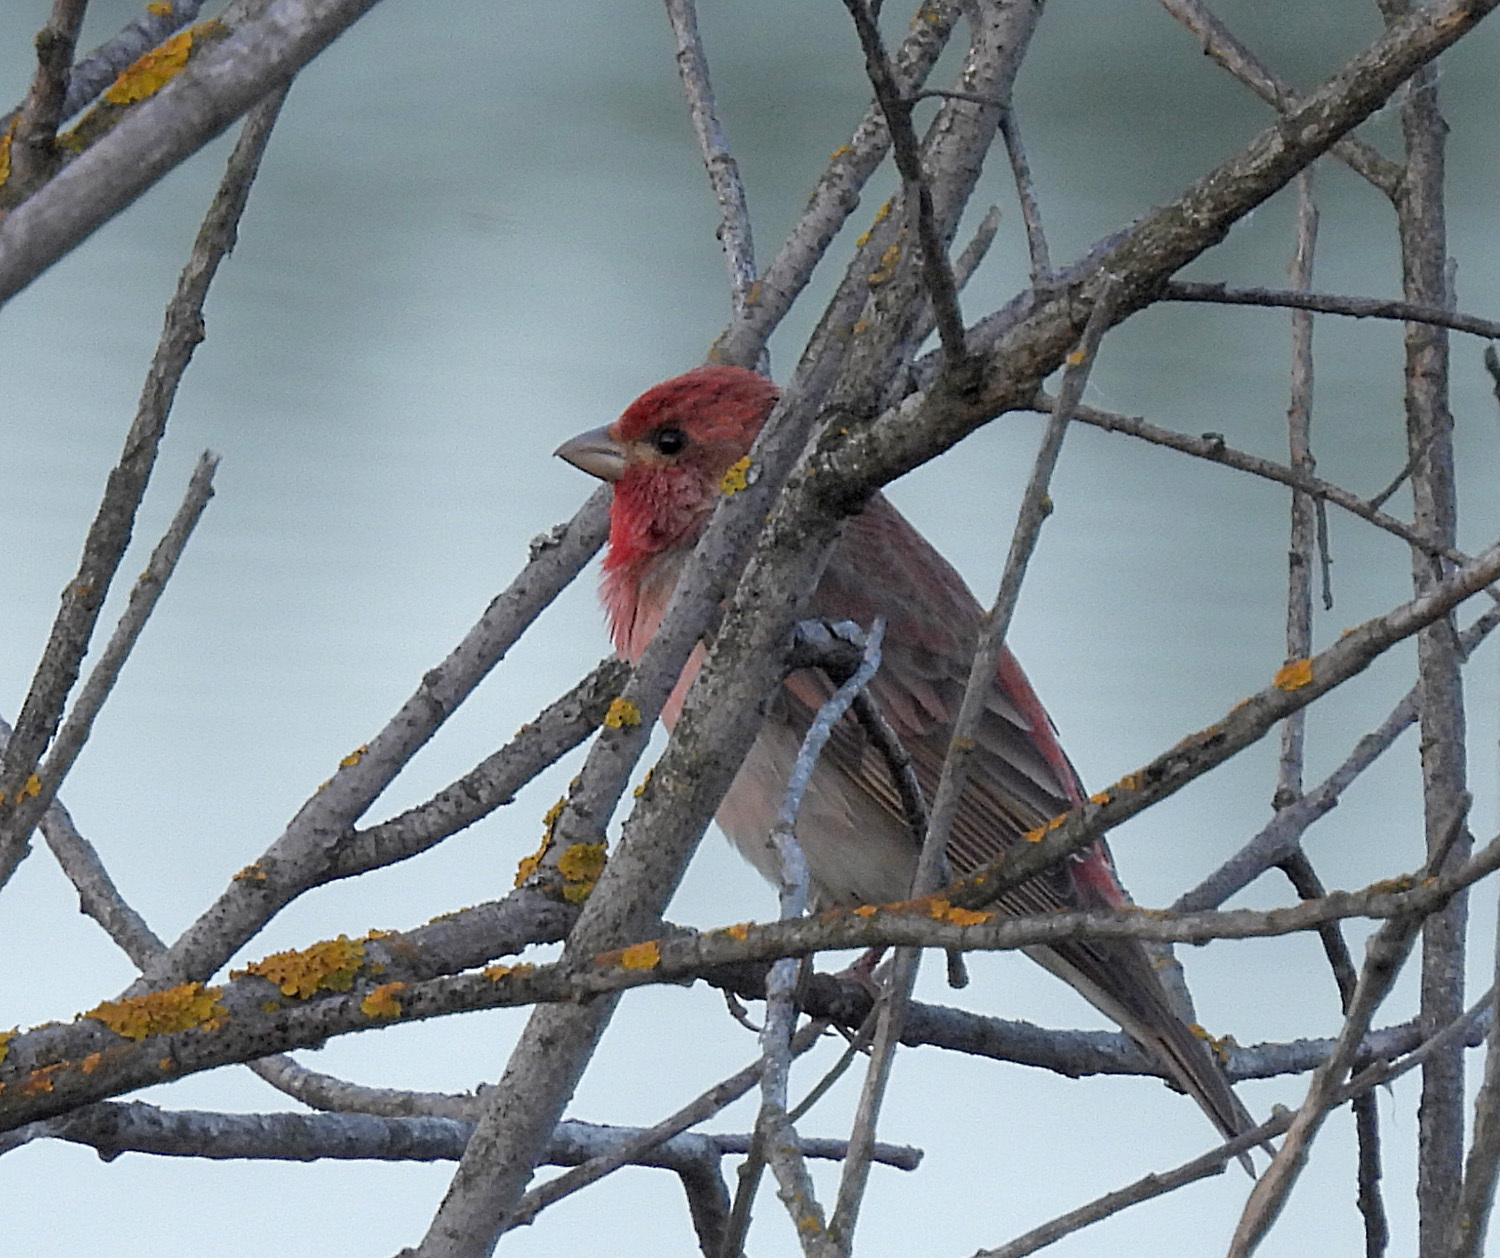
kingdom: Animalia
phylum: Chordata
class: Aves
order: Passeriformes
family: Fringillidae
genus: Carpodacus
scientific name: Carpodacus erythrinus
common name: Common rosefinch
